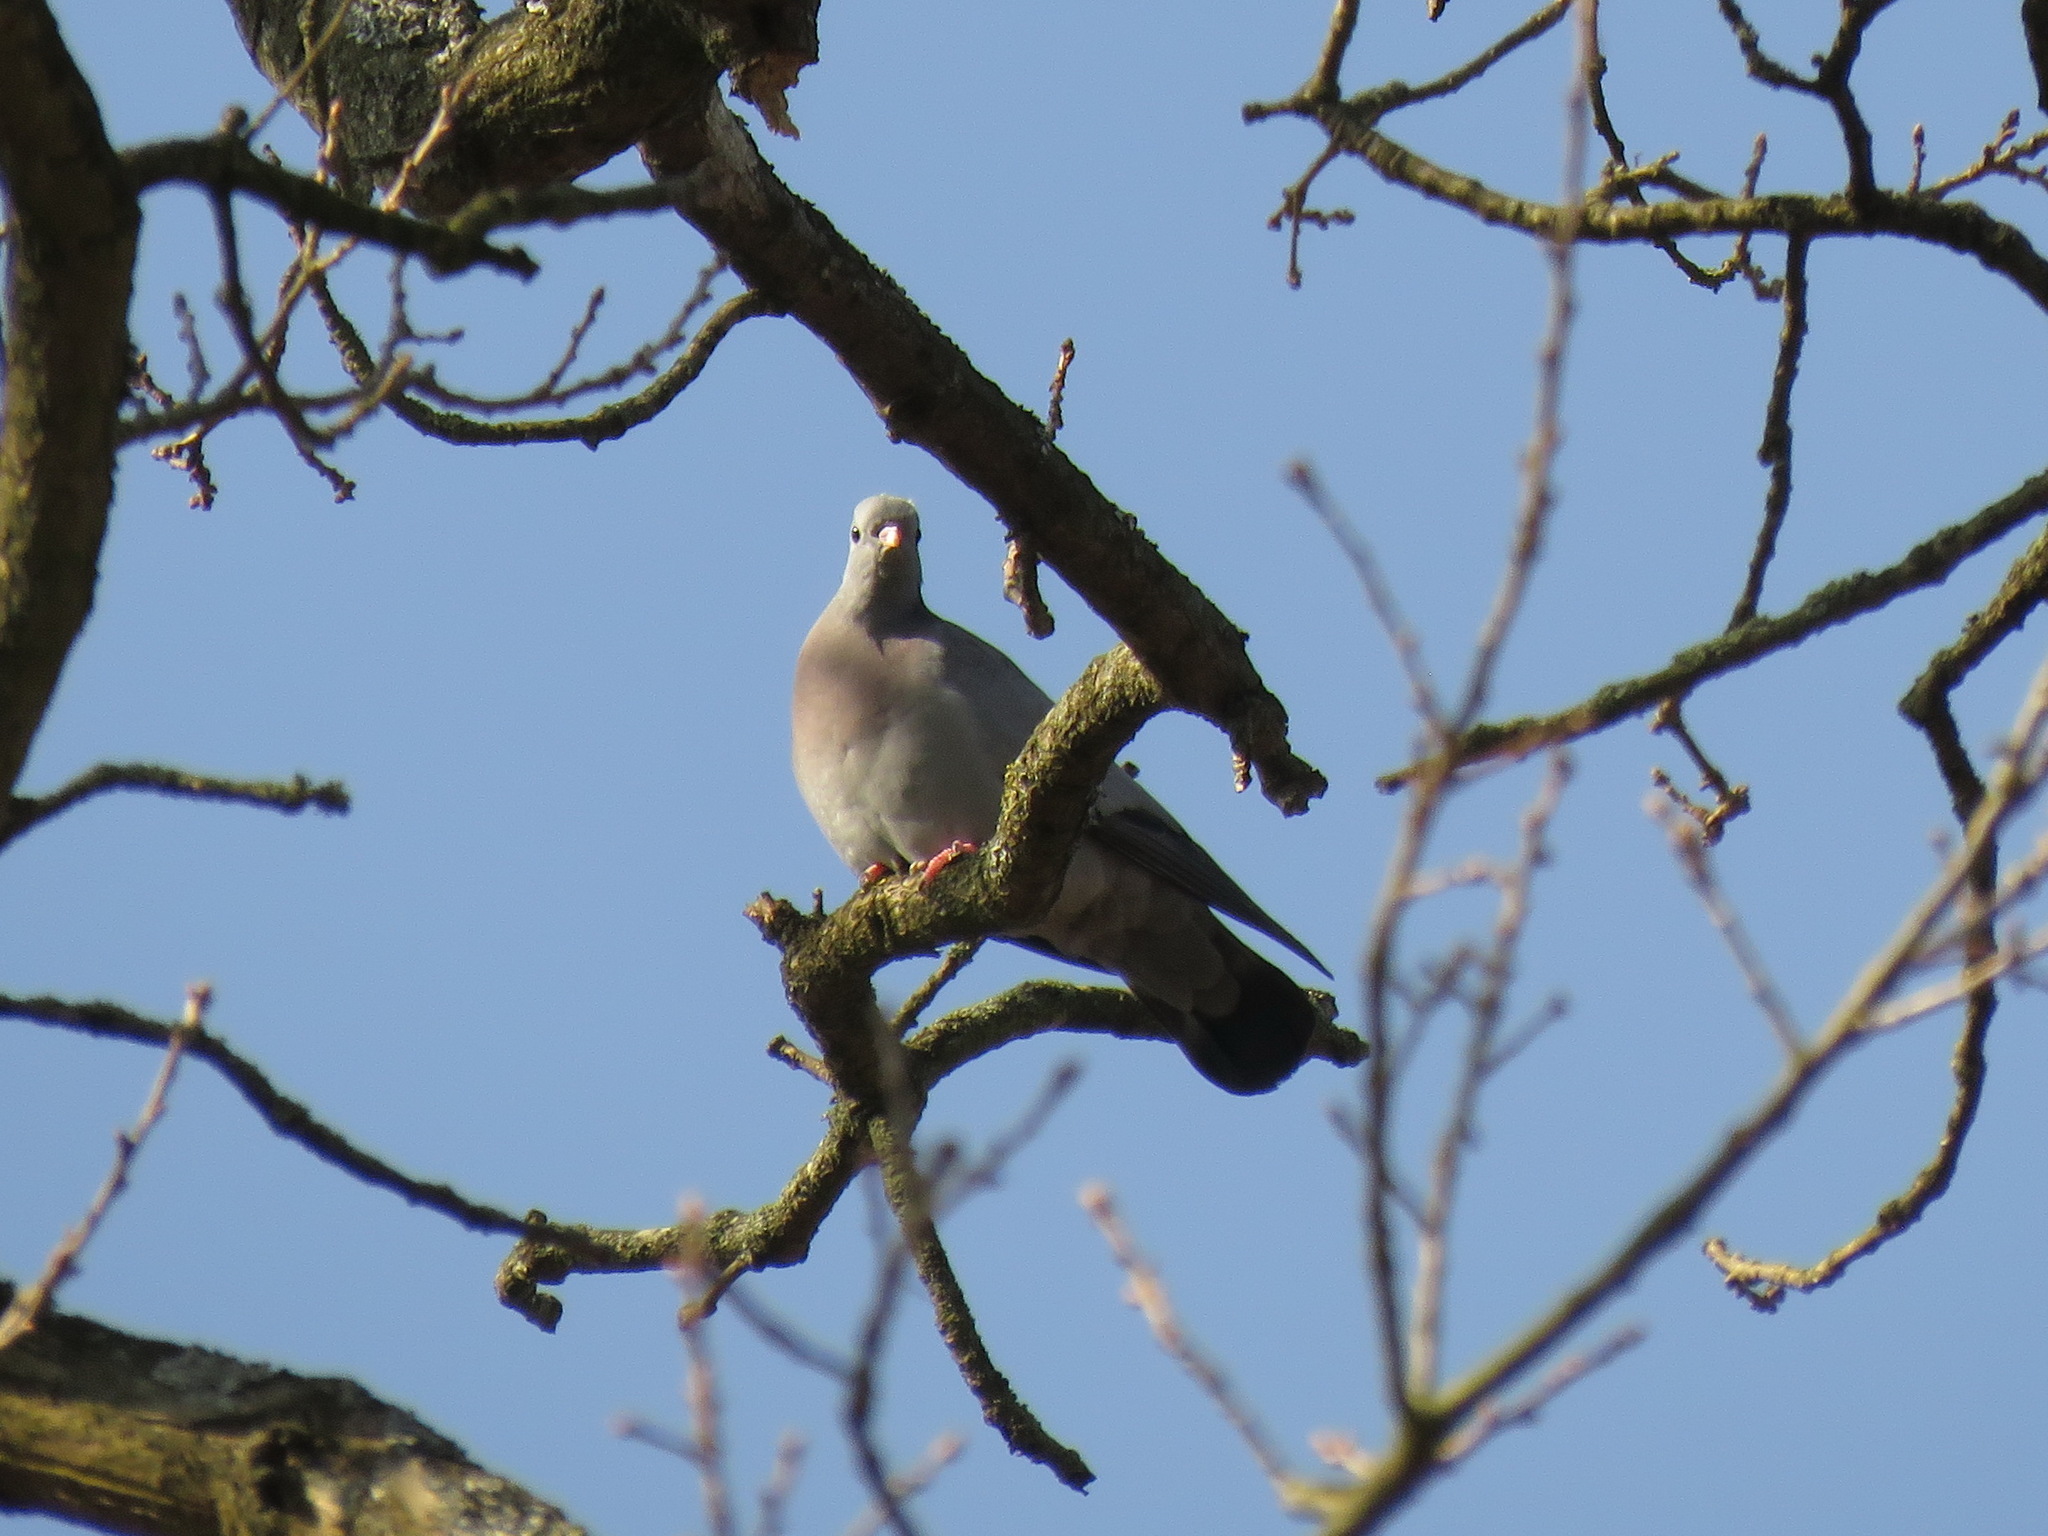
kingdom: Animalia
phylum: Chordata
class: Aves
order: Columbiformes
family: Columbidae
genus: Columba
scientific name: Columba oenas
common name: Stock dove
